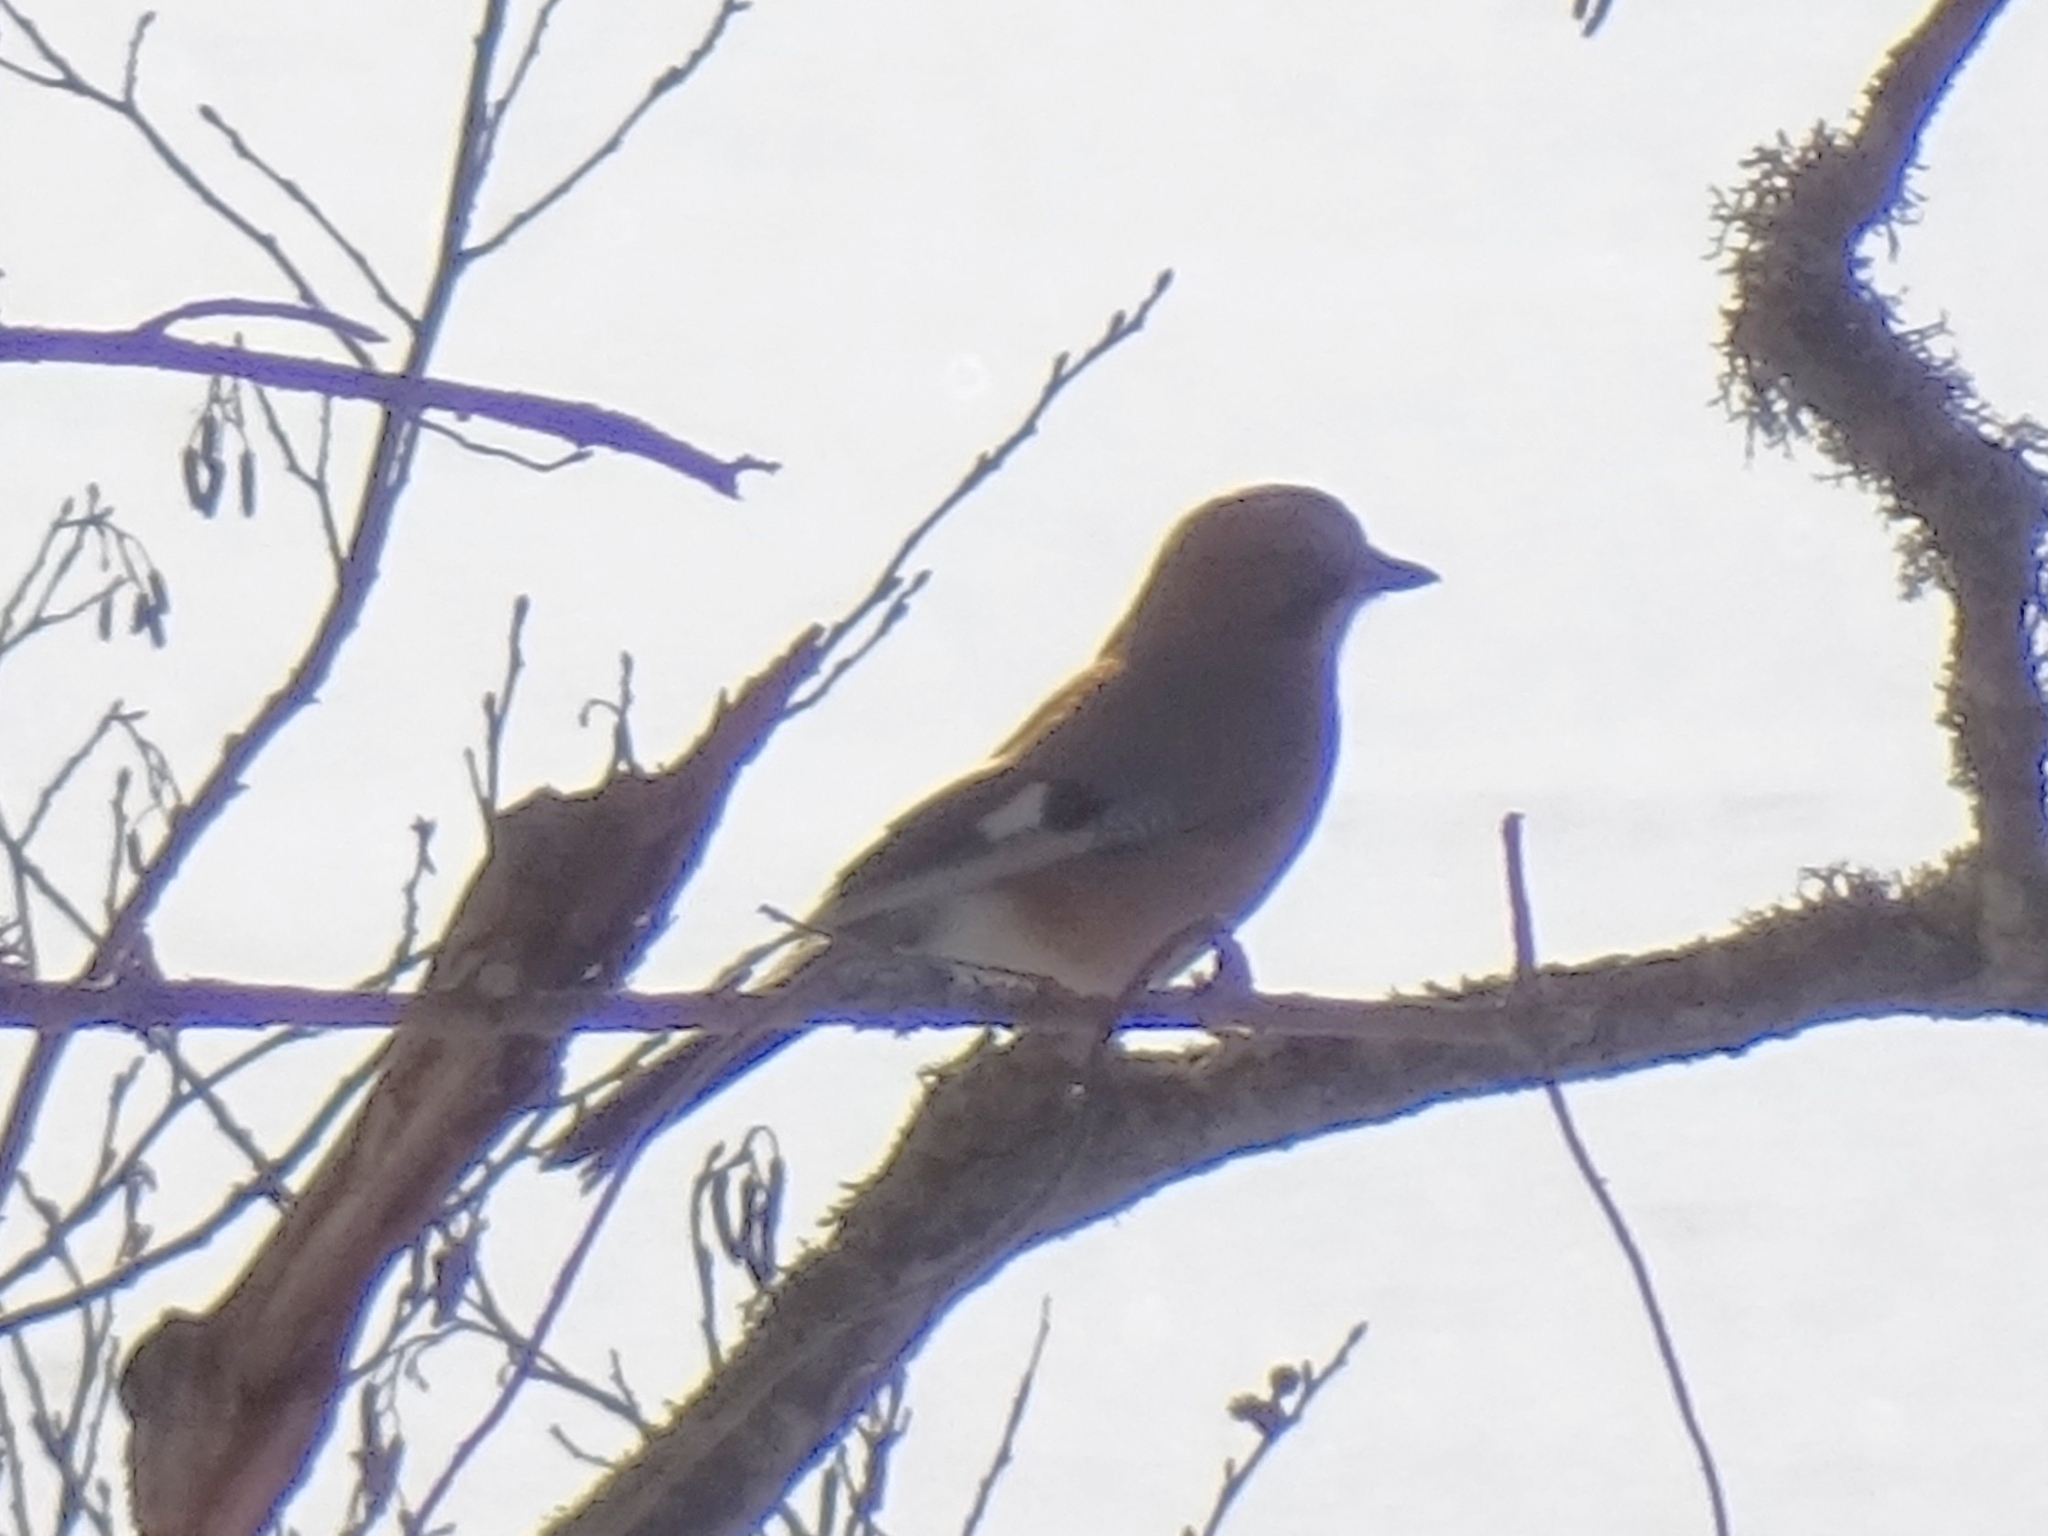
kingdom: Animalia
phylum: Chordata
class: Aves
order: Passeriformes
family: Corvidae
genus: Garrulus
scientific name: Garrulus glandarius
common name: Eurasian jay
